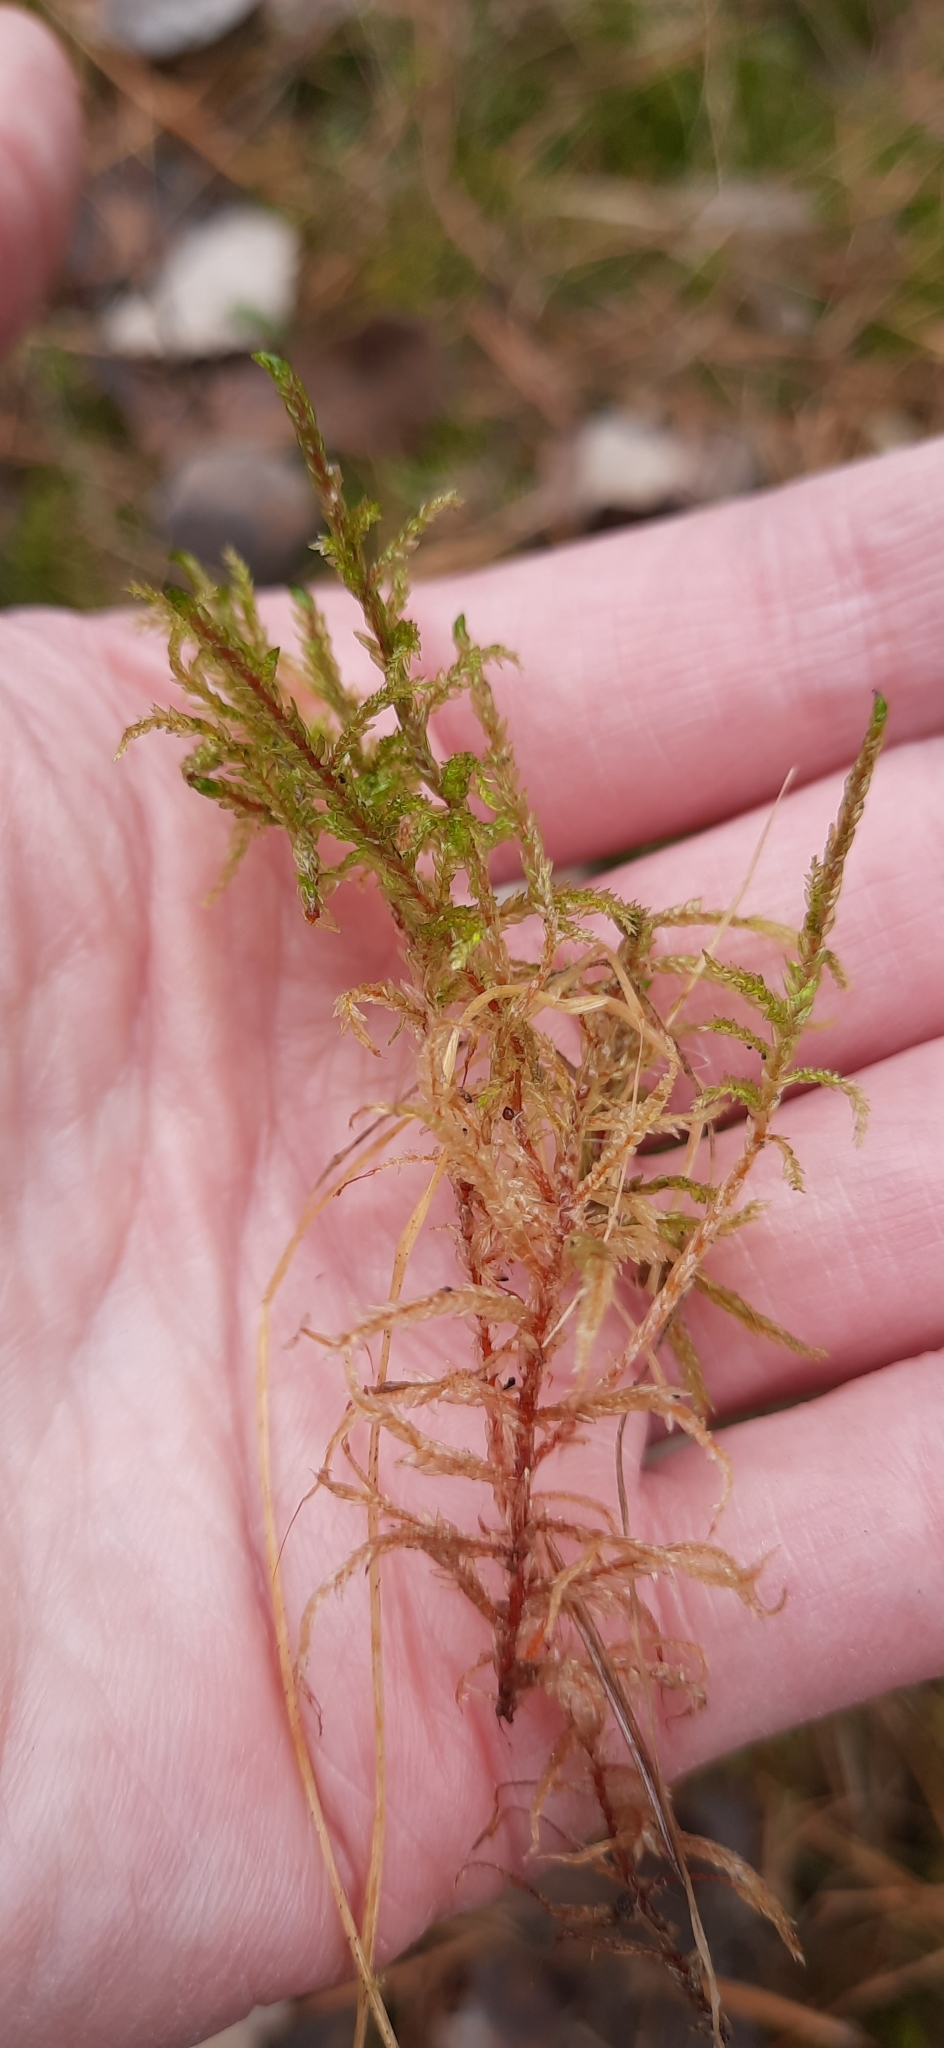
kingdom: Plantae
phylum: Bryophyta
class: Bryopsida
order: Hypnales
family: Hylocomiaceae
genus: Pleurozium
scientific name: Pleurozium schreberi
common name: Red-stemmed feather moss
